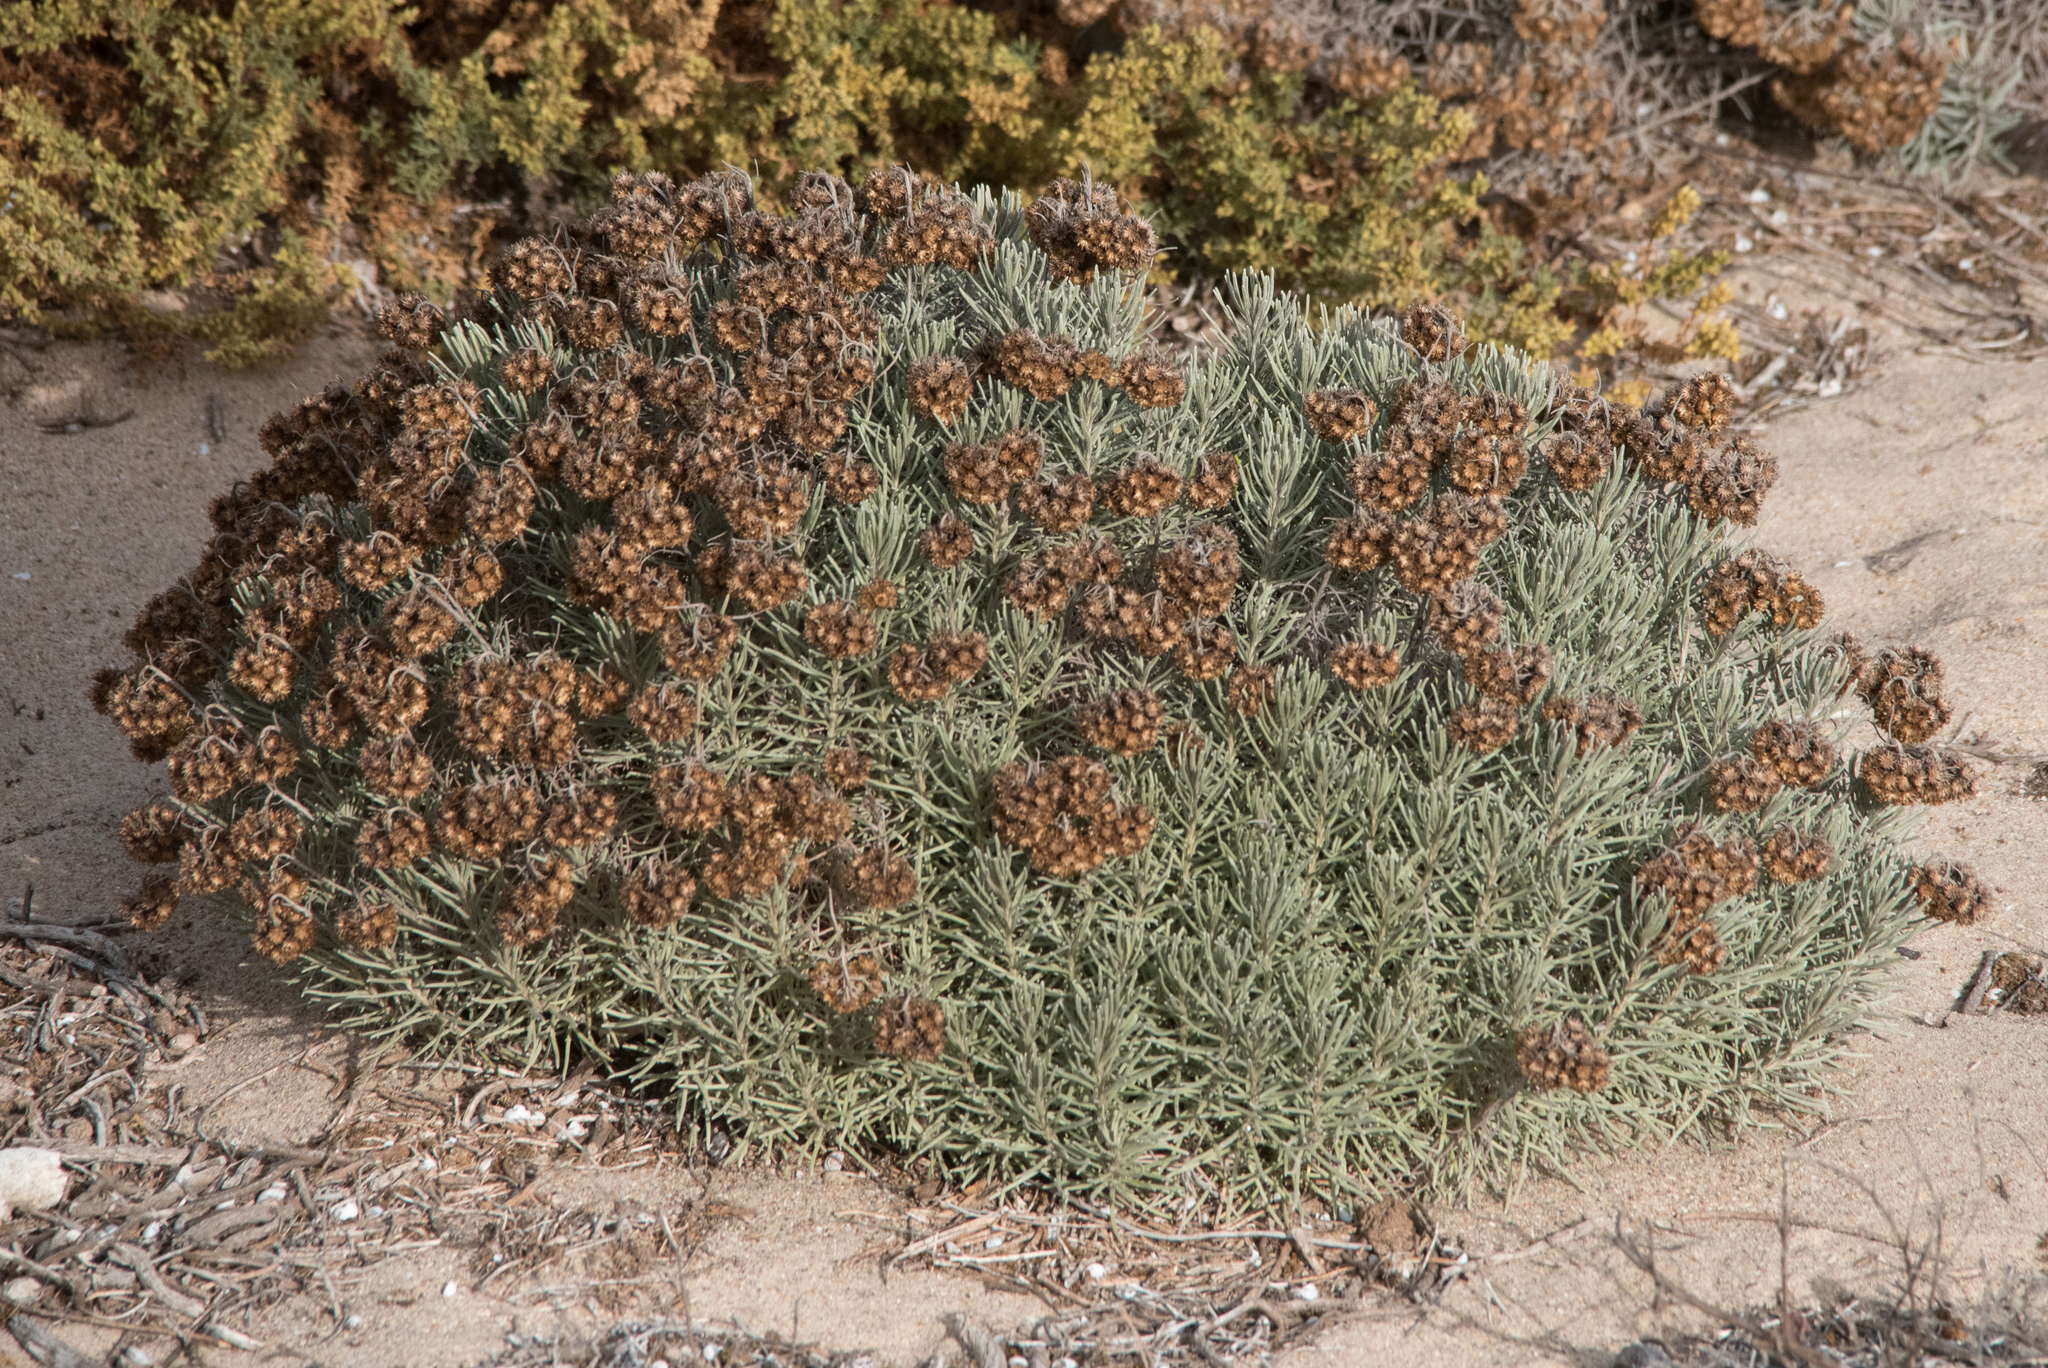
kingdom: Plantae
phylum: Tracheophyta
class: Magnoliopsida
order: Asterales
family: Asteraceae
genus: Helichrysum
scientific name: Helichrysum stoechas
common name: Goldilocks
